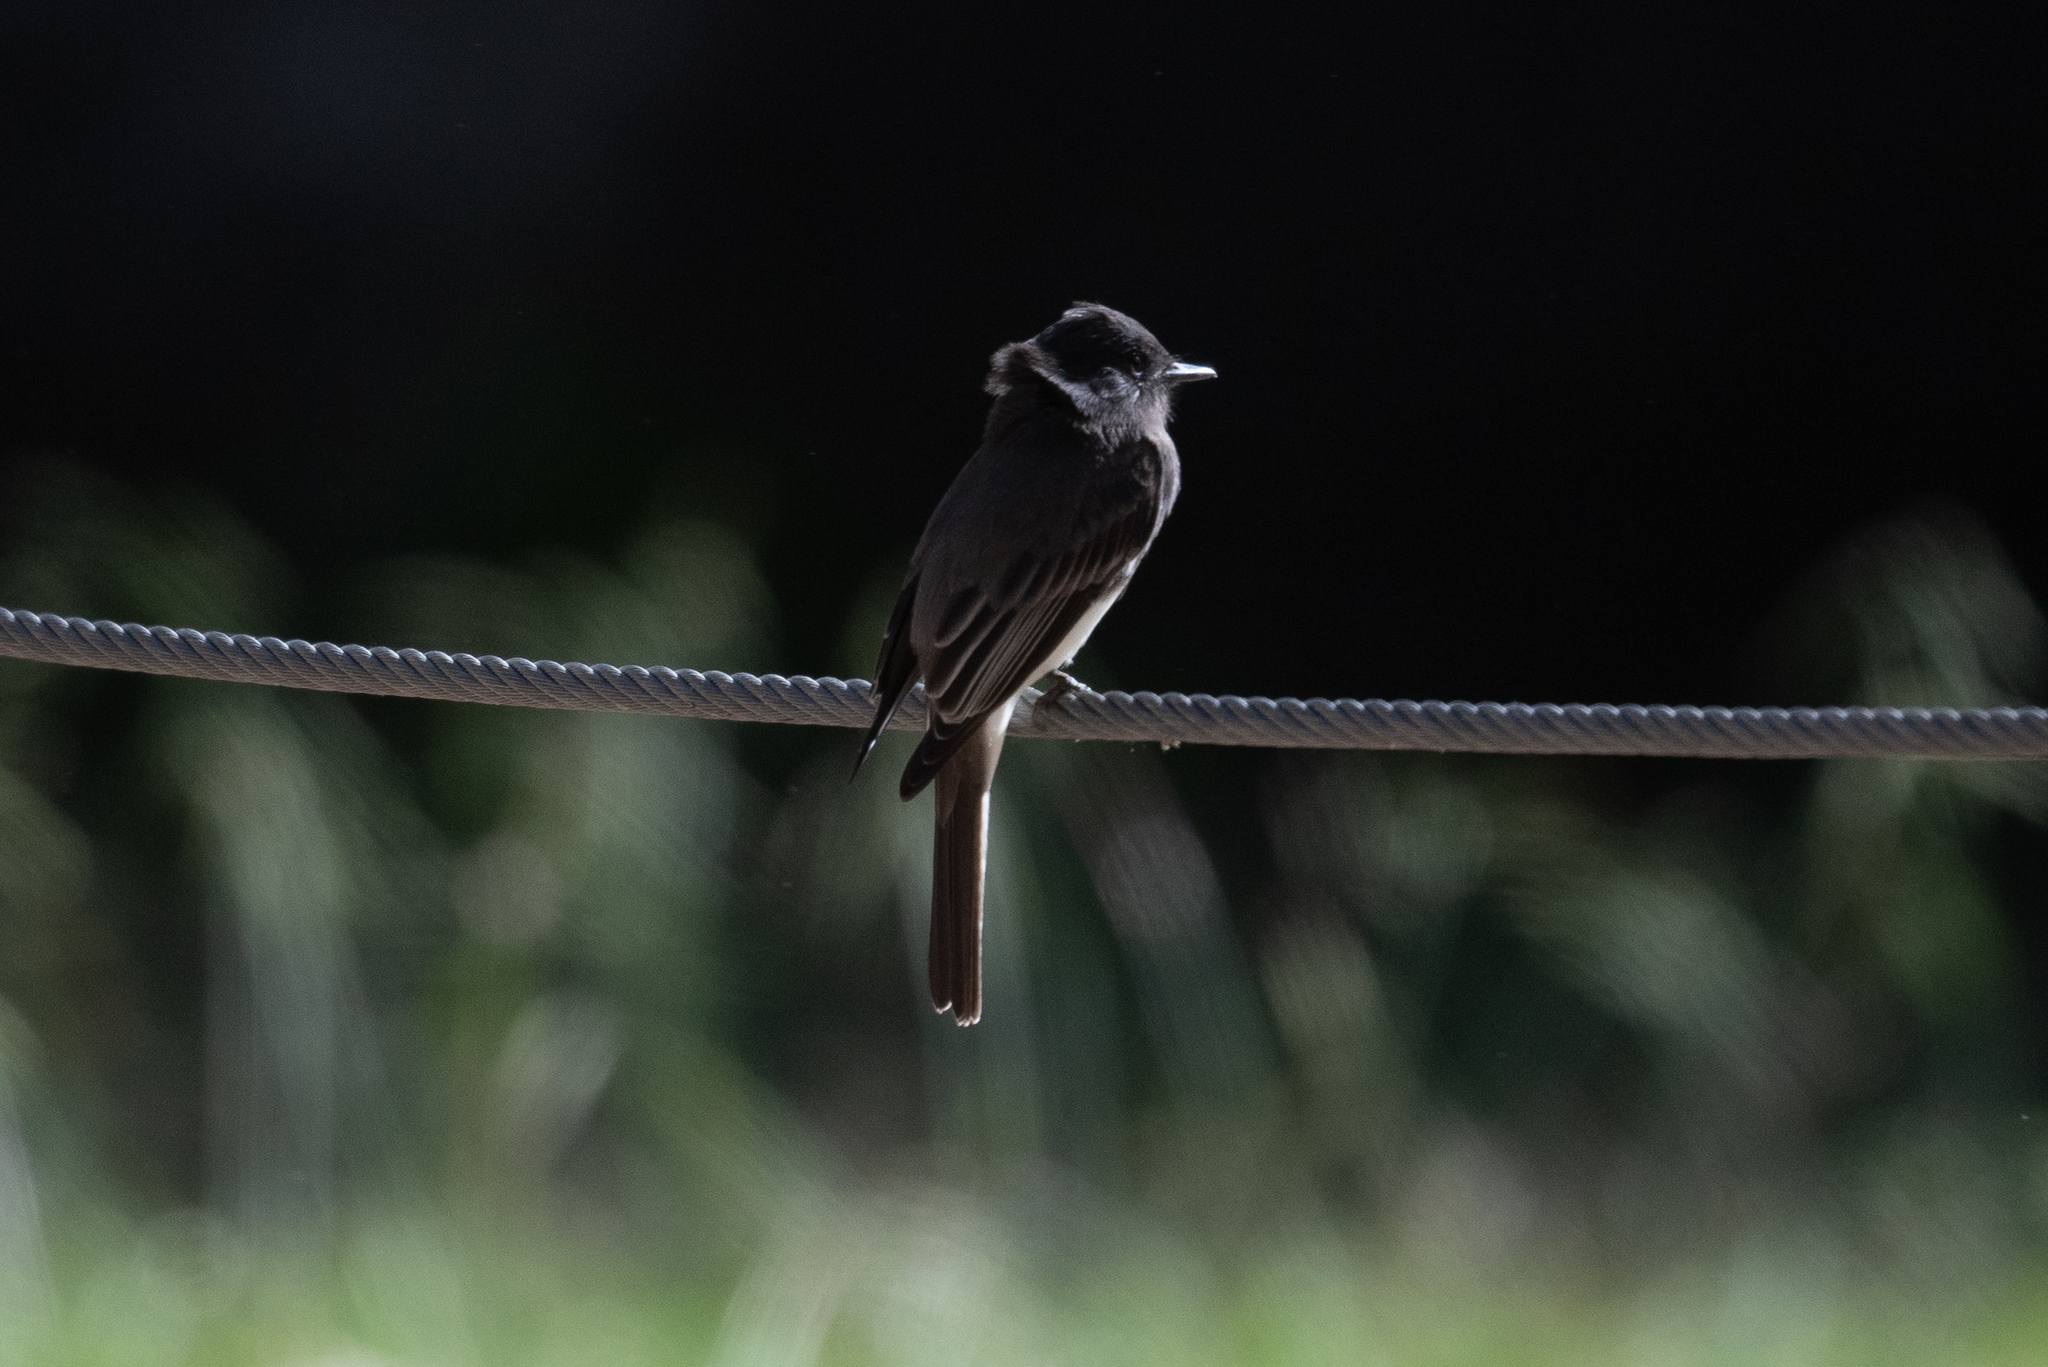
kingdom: Animalia
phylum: Chordata
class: Aves
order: Passeriformes
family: Tyrannidae
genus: Sayornis
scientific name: Sayornis nigricans
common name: Black phoebe
